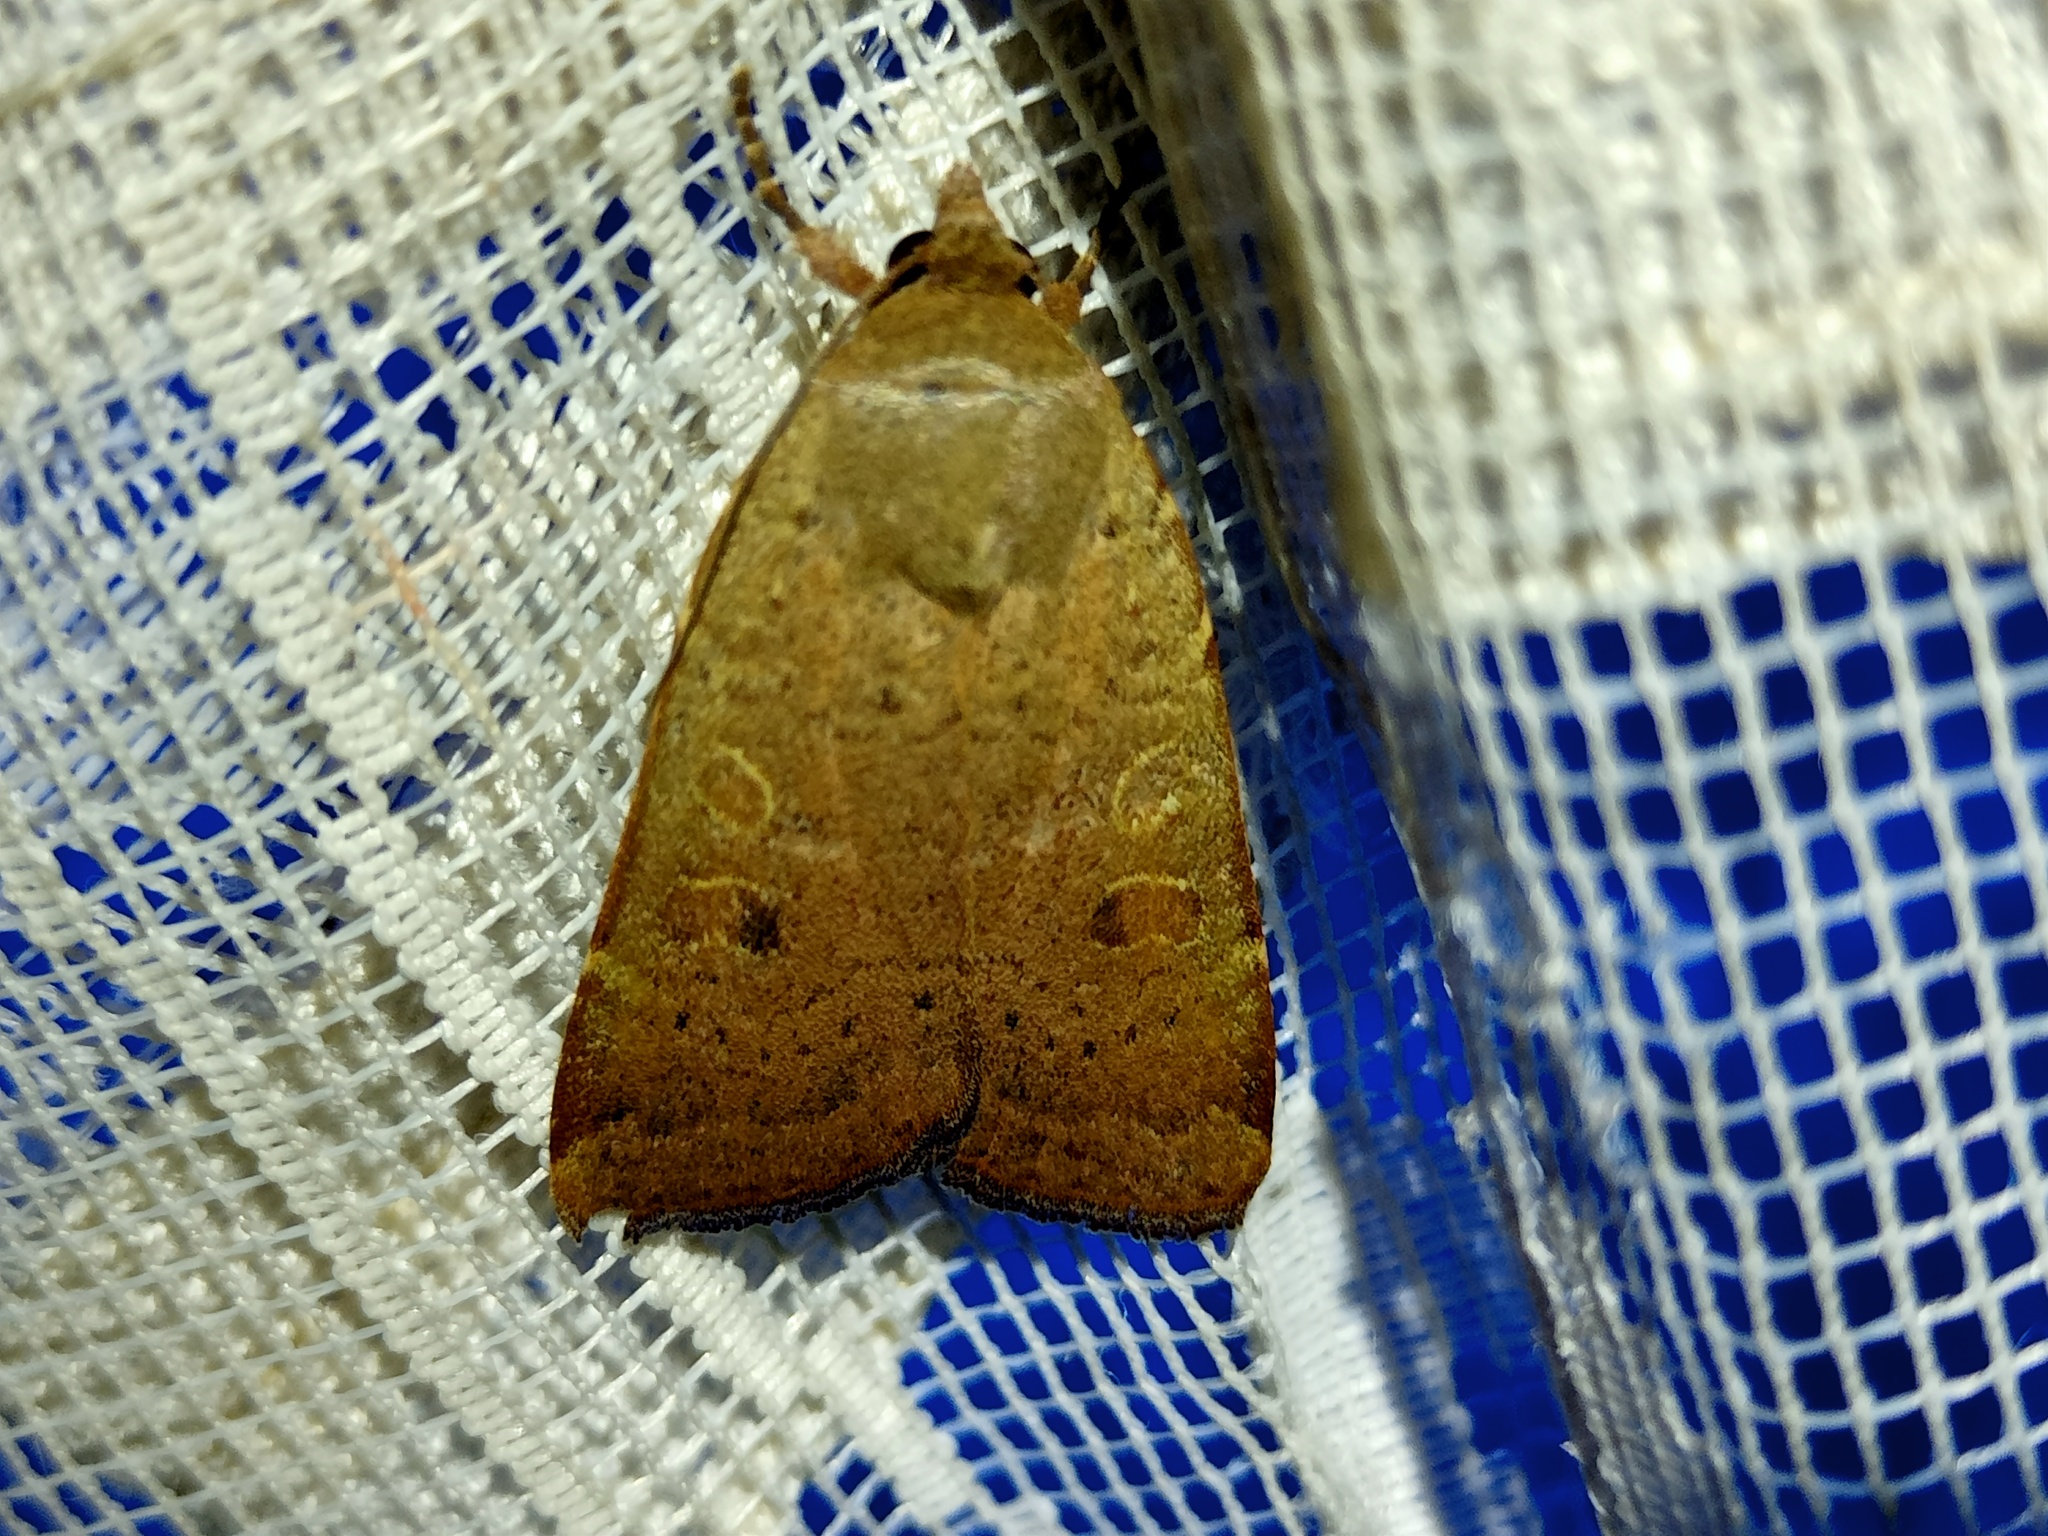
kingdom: Animalia
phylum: Arthropoda
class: Insecta
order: Lepidoptera
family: Noctuidae
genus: Noctua
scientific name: Noctua comes
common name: Lesser yellow underwing
